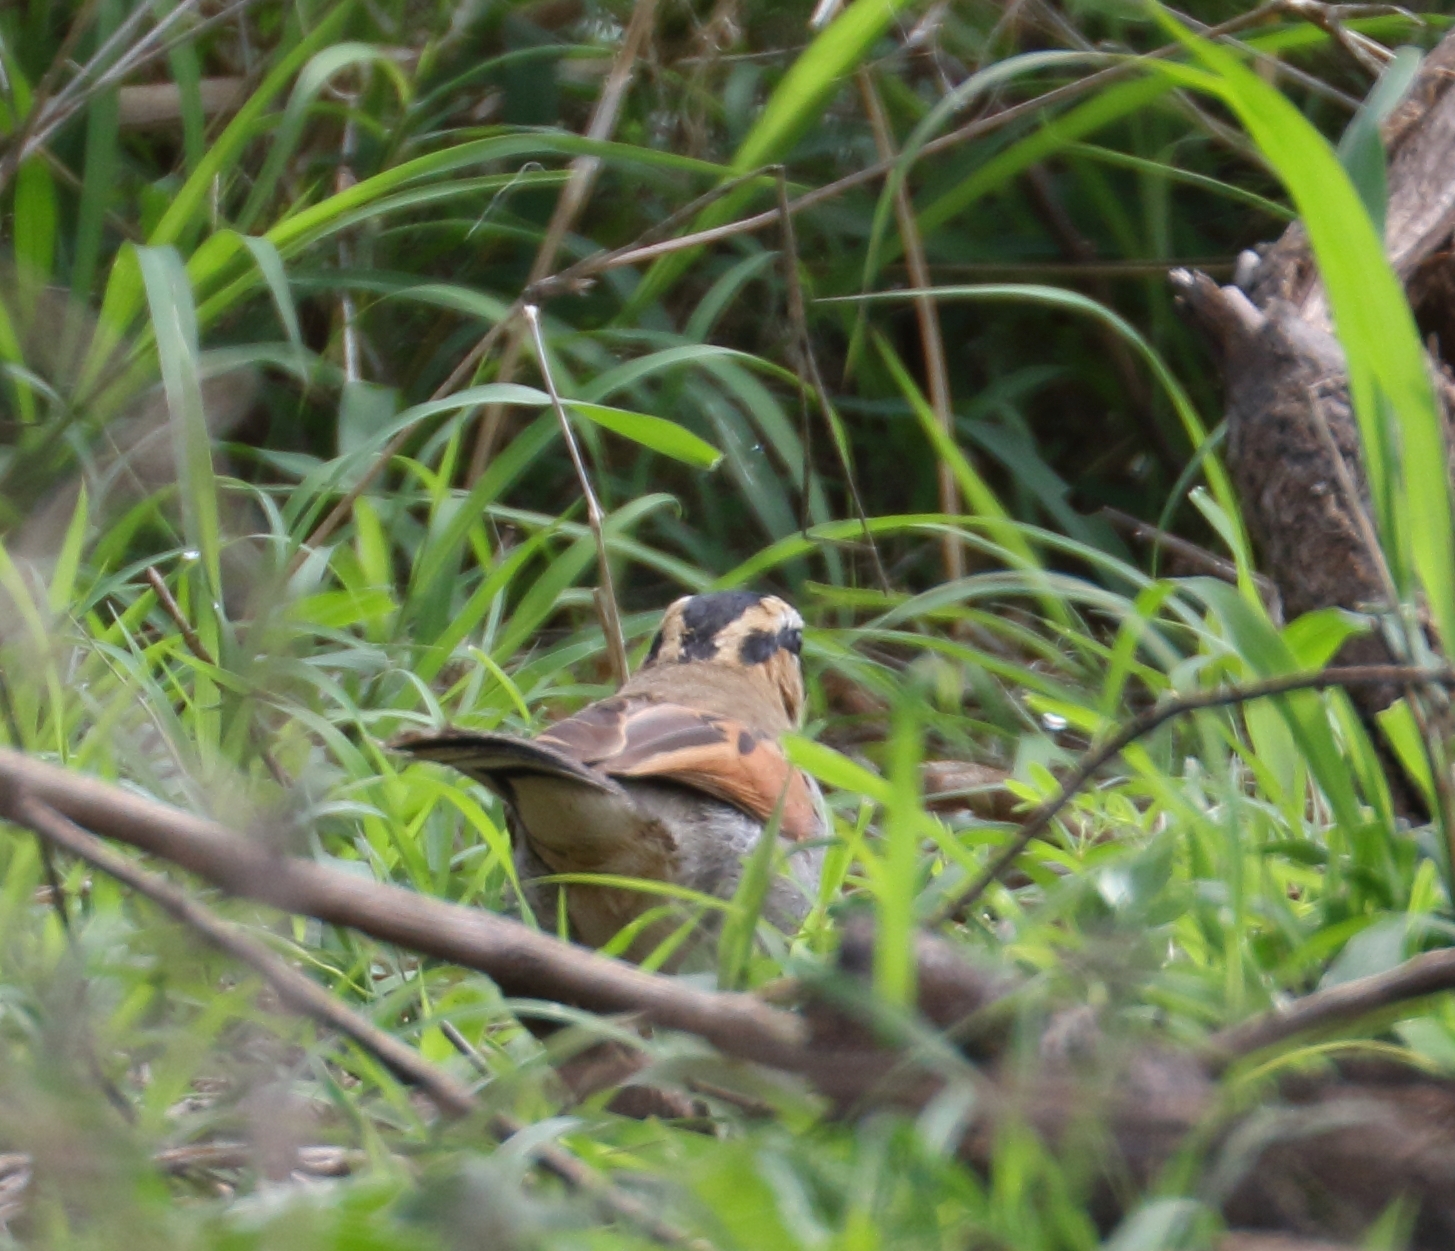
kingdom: Animalia
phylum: Chordata
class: Aves
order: Passeriformes
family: Malaconotidae
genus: Tchagra
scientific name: Tchagra senegalus
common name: Black-crowned tchagra
